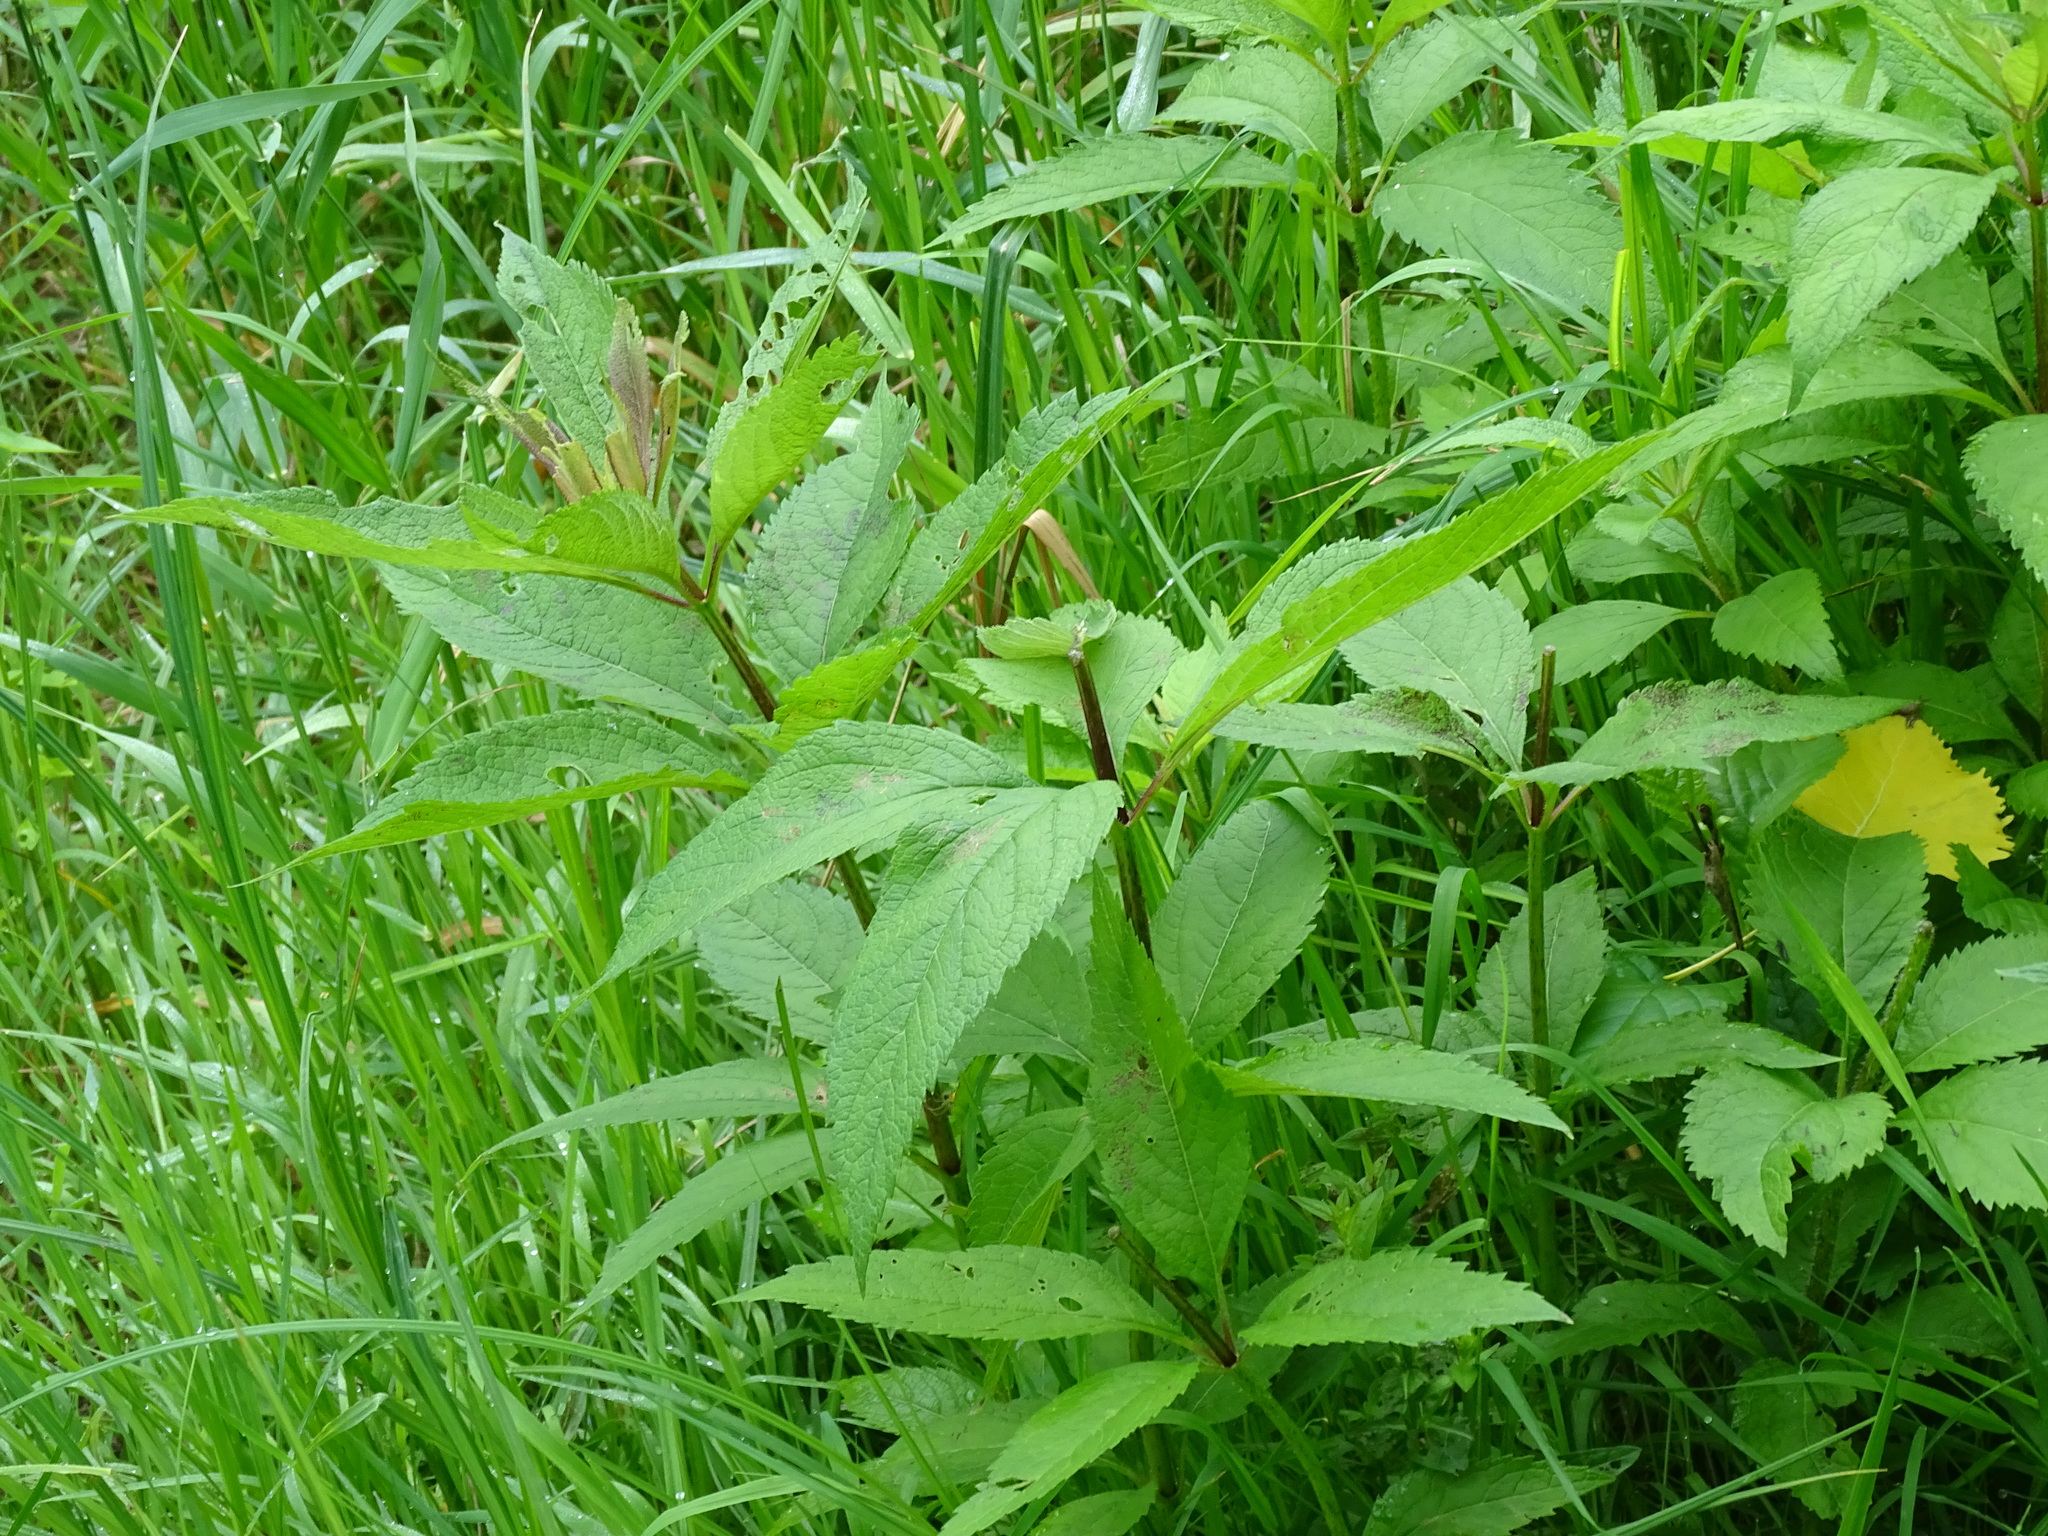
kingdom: Plantae
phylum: Tracheophyta
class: Magnoliopsida
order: Asterales
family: Asteraceae
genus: Eutrochium
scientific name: Eutrochium maculatum
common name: Spotted joe pye weed
